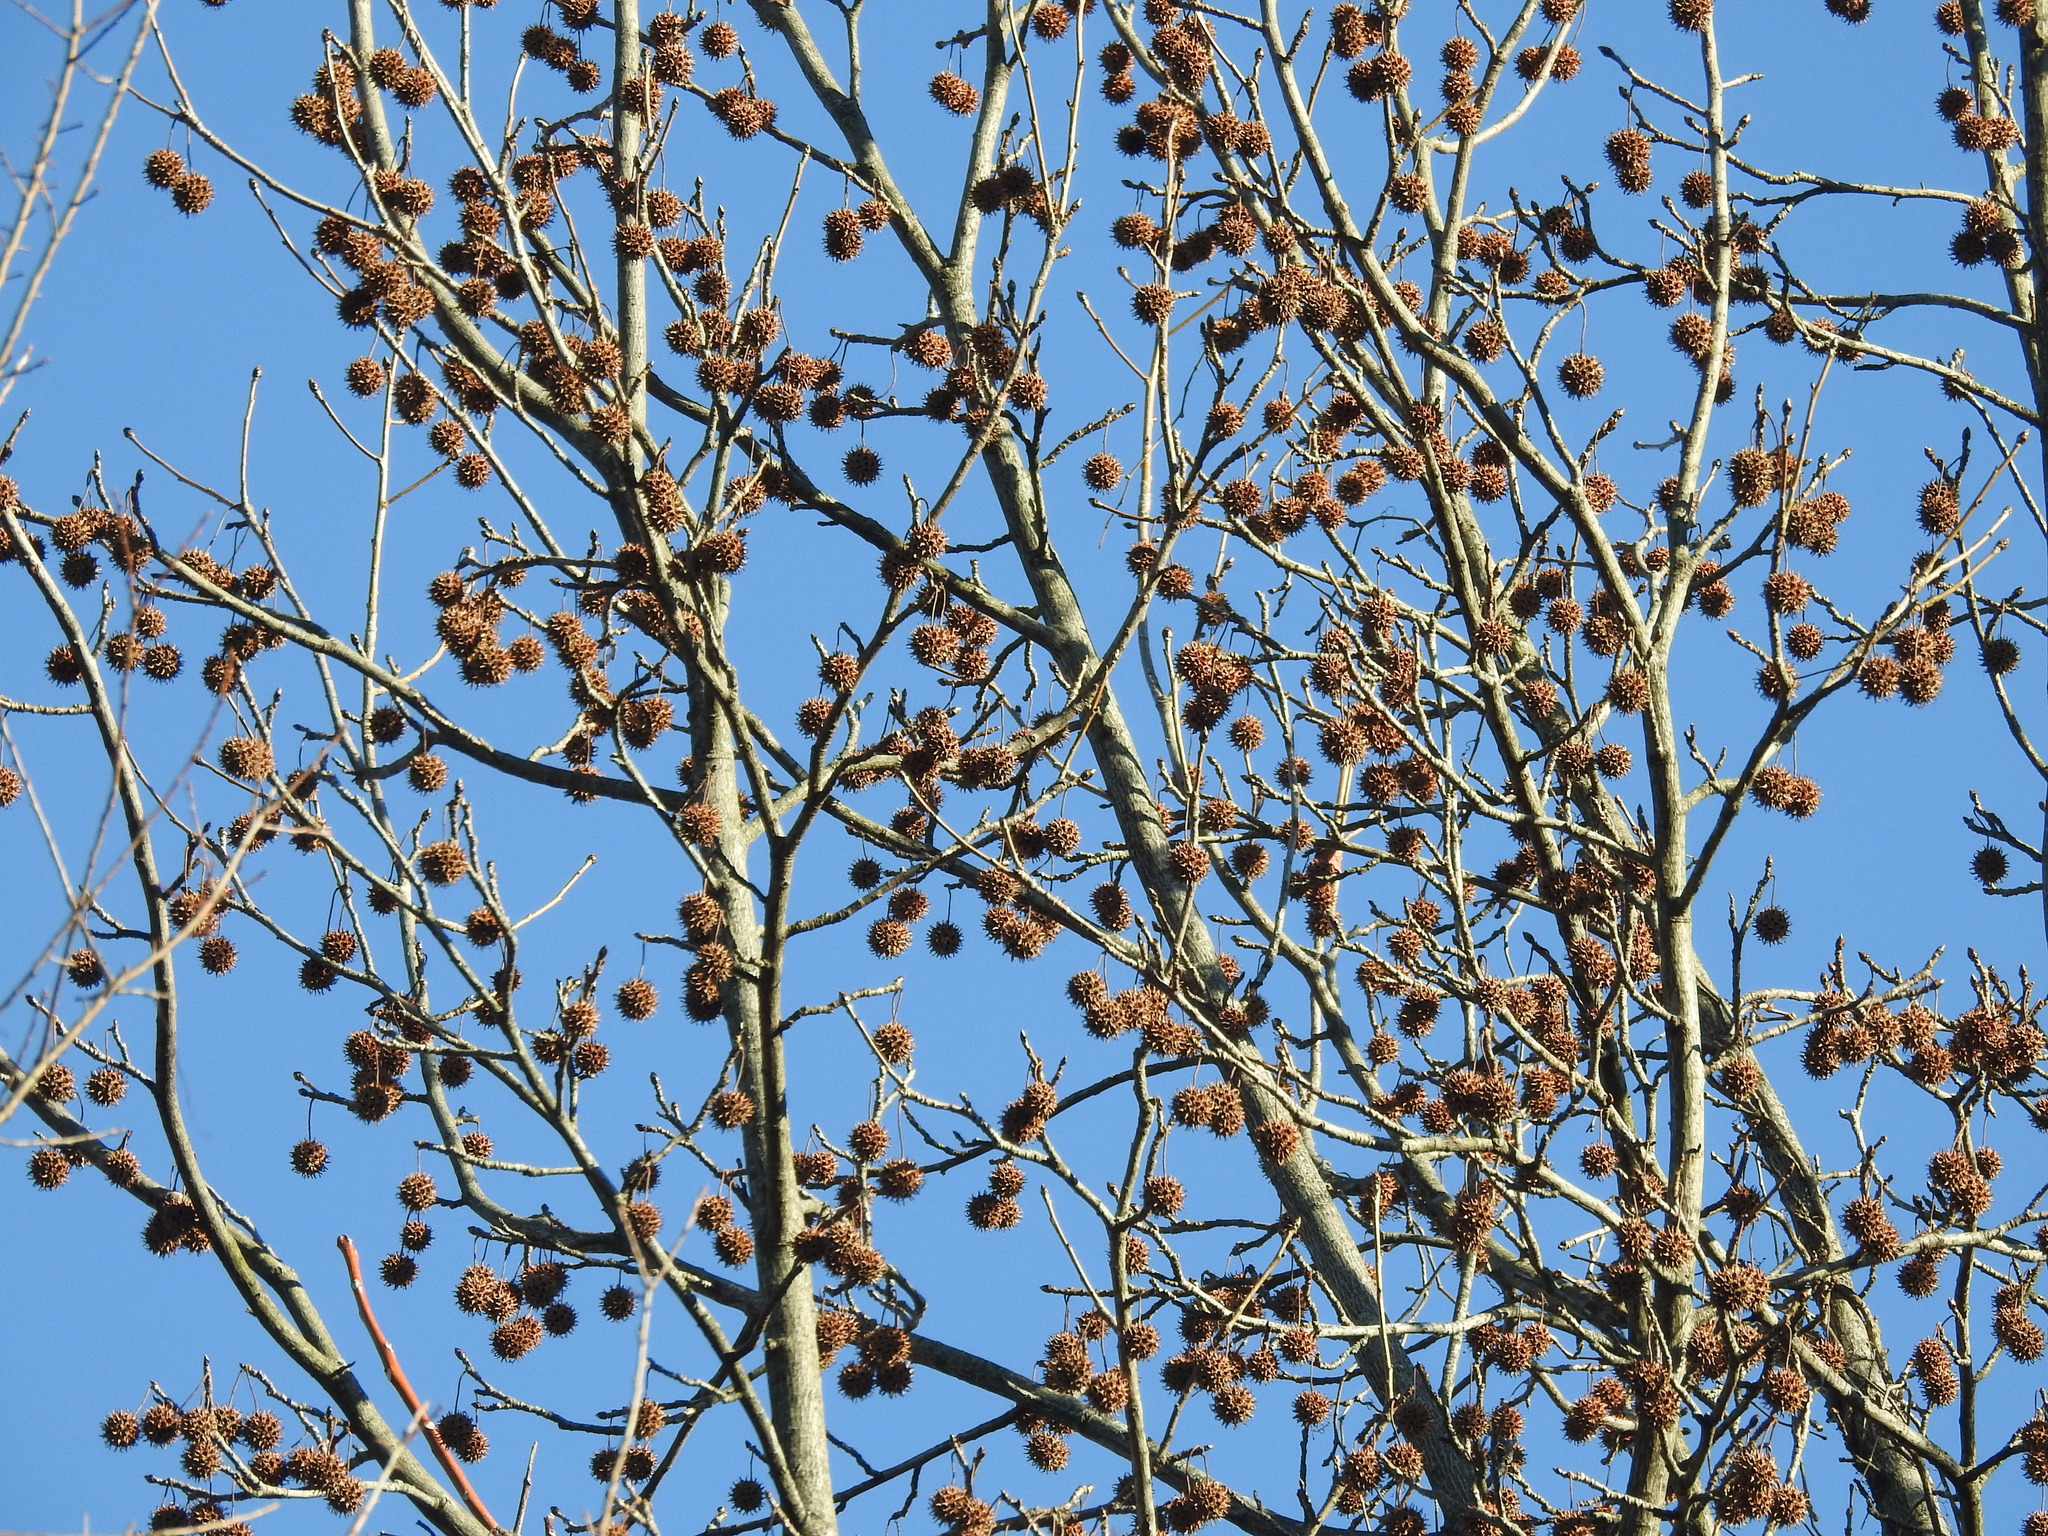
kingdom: Plantae
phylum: Tracheophyta
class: Magnoliopsida
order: Saxifragales
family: Altingiaceae
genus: Liquidambar
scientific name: Liquidambar styraciflua
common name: Sweet gum
